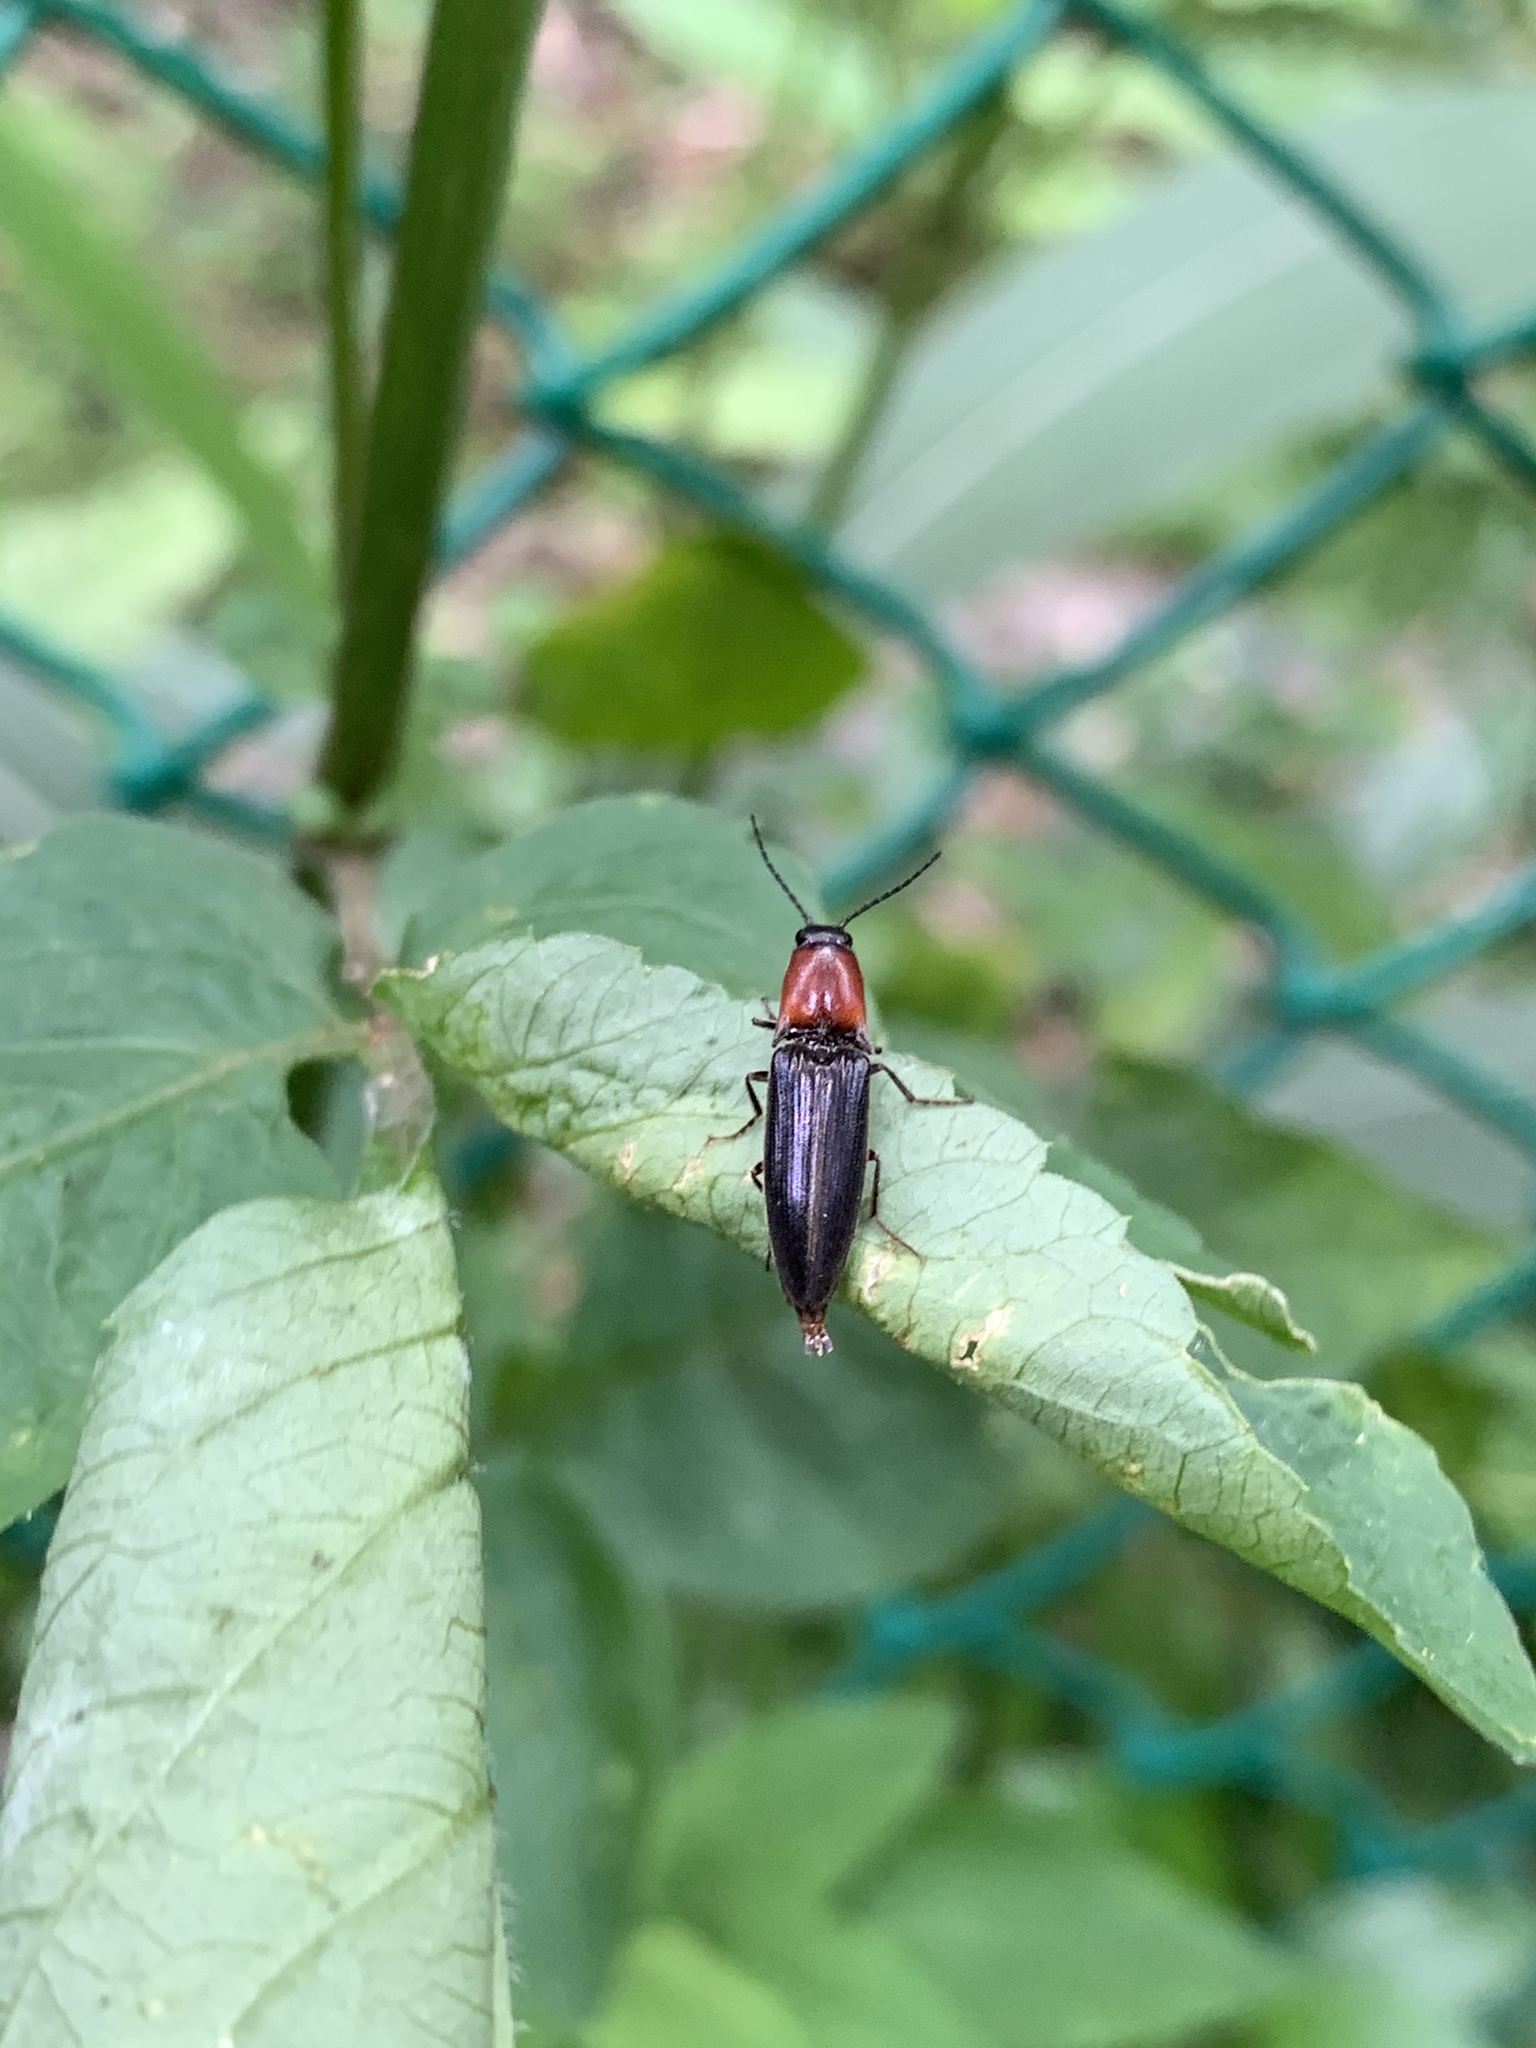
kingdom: Animalia
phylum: Arthropoda
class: Insecta
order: Coleoptera
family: Elateridae
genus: Ludioschema
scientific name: Ludioschema obscuripes
